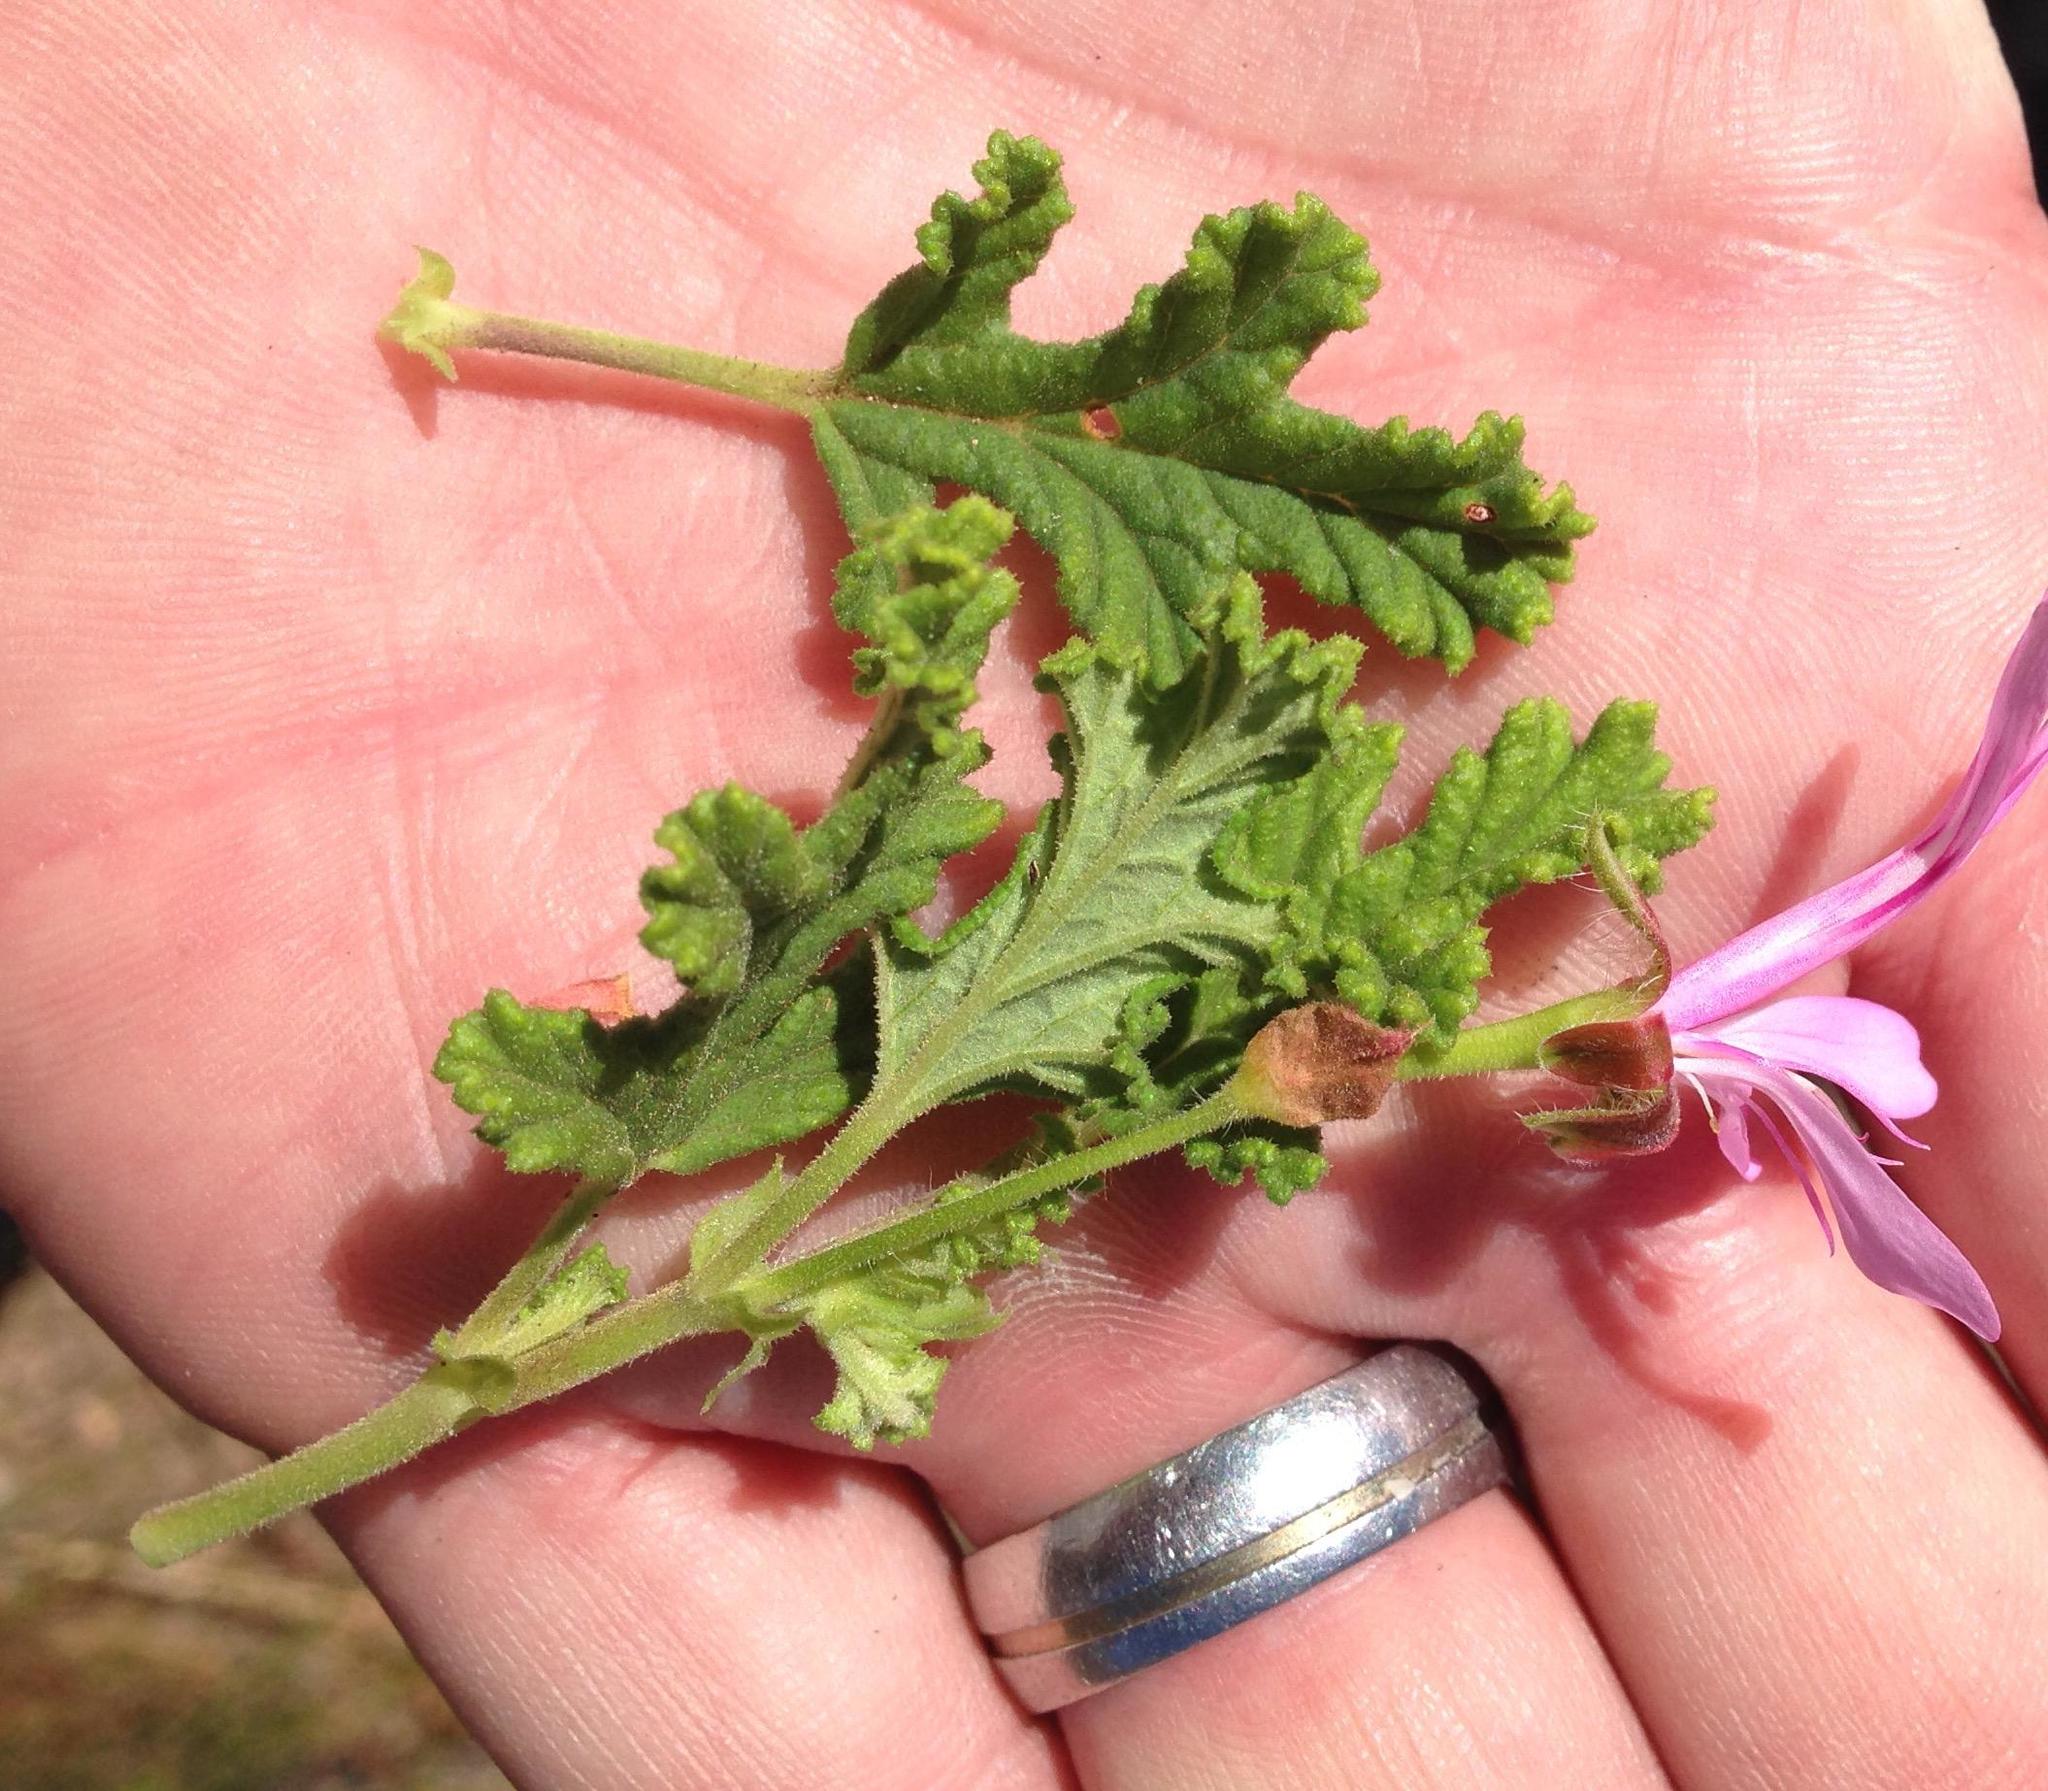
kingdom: Plantae
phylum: Tracheophyta
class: Magnoliopsida
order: Geraniales
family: Geraniaceae
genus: Pelargonium
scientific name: Pelargonium panduriforme
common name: Oakleaf garden geranium
